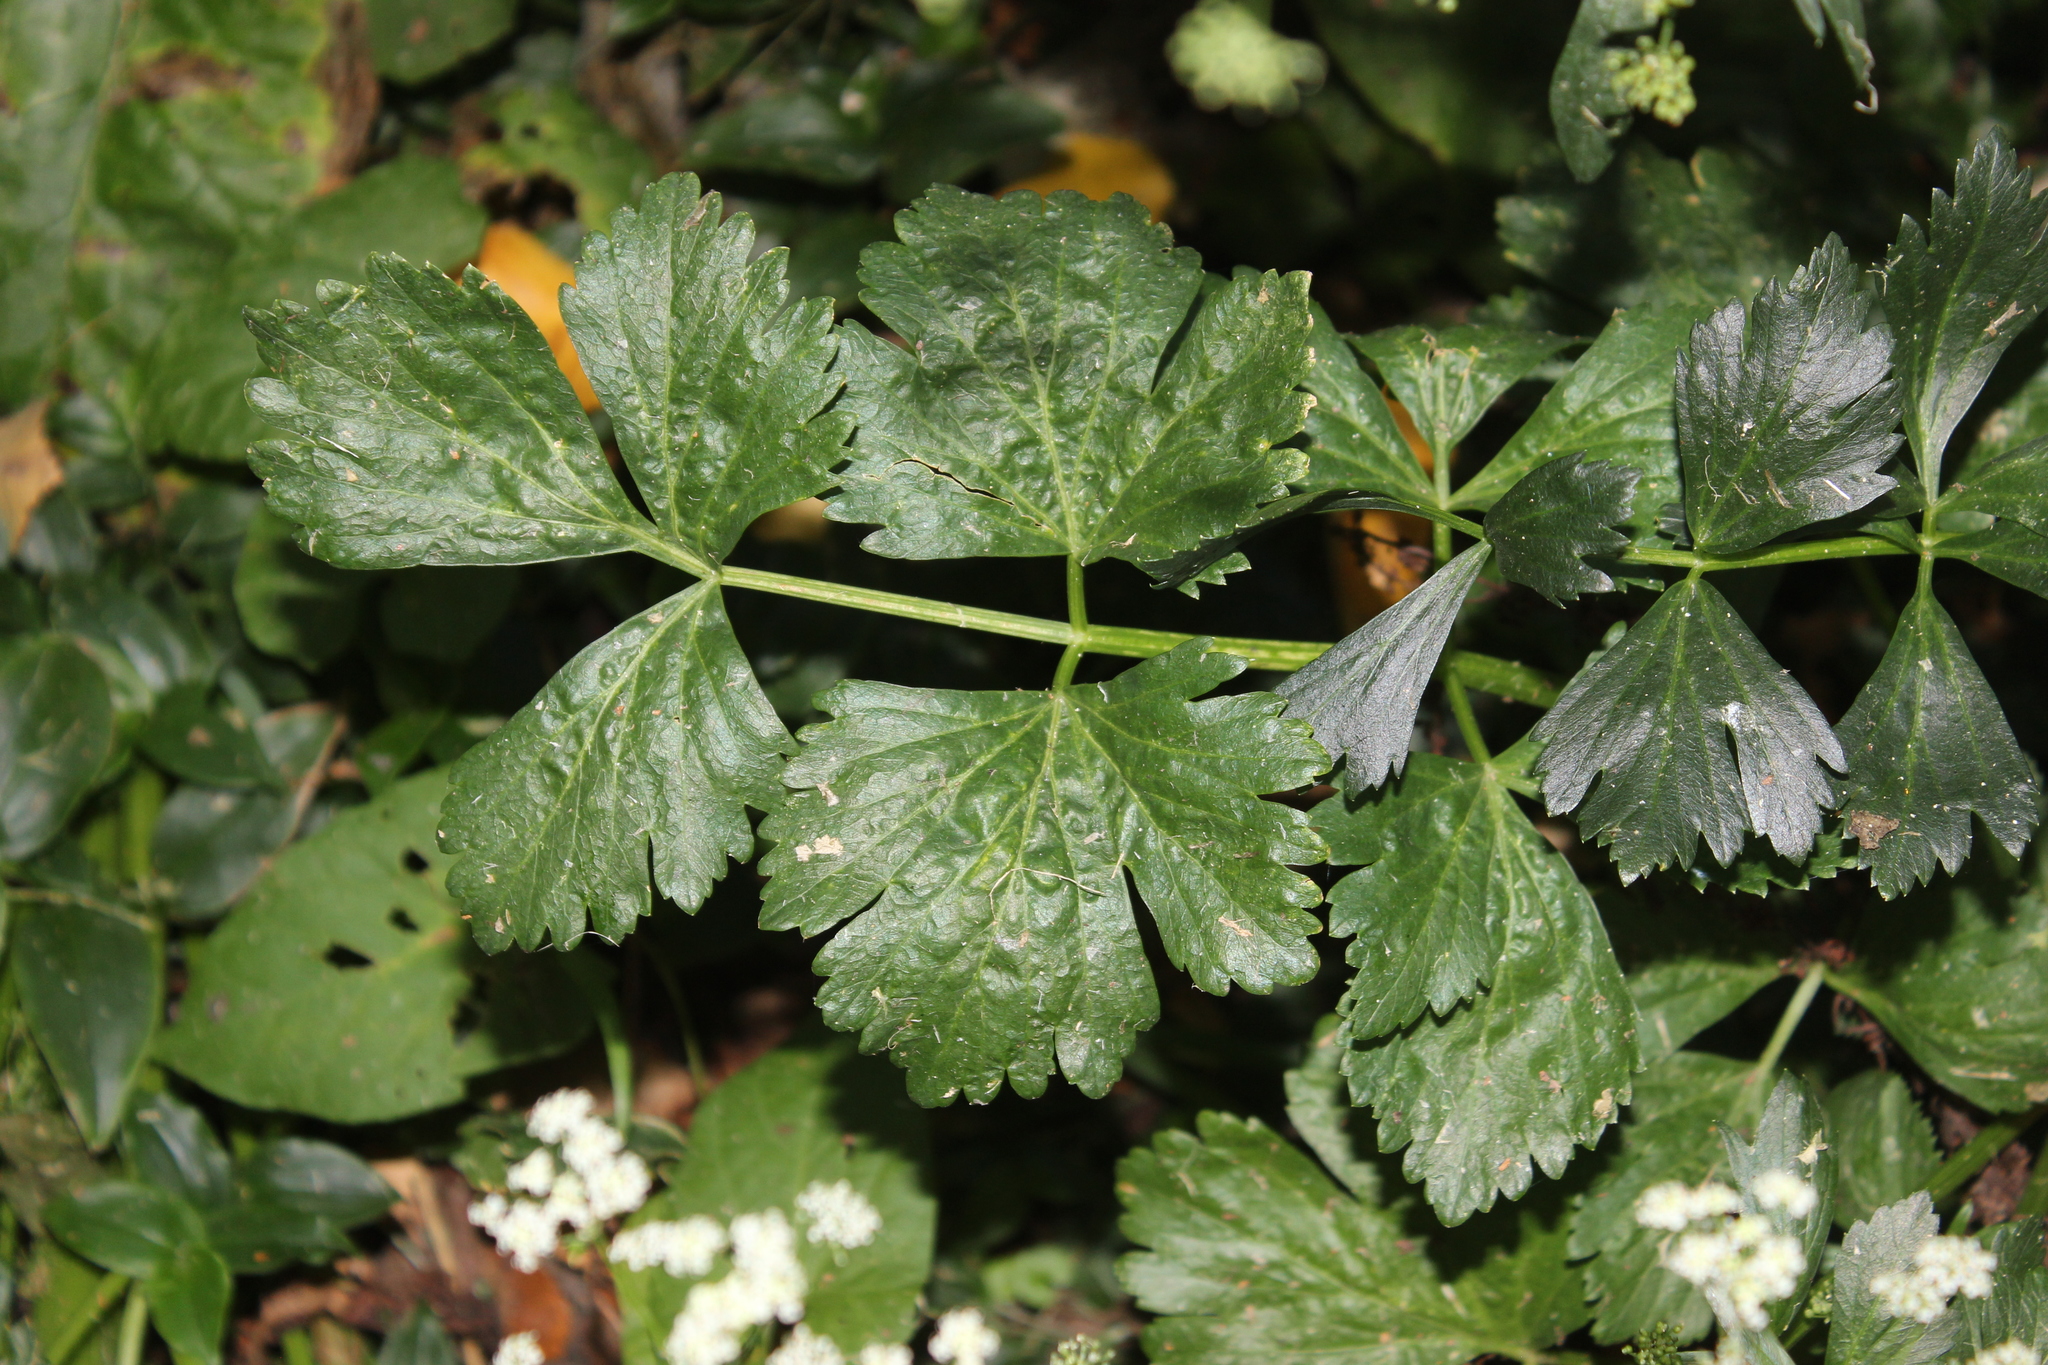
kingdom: Plantae
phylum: Tracheophyta
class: Magnoliopsida
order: Apiales
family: Apiaceae
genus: Conium
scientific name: Conium maculatum
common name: Hemlock
